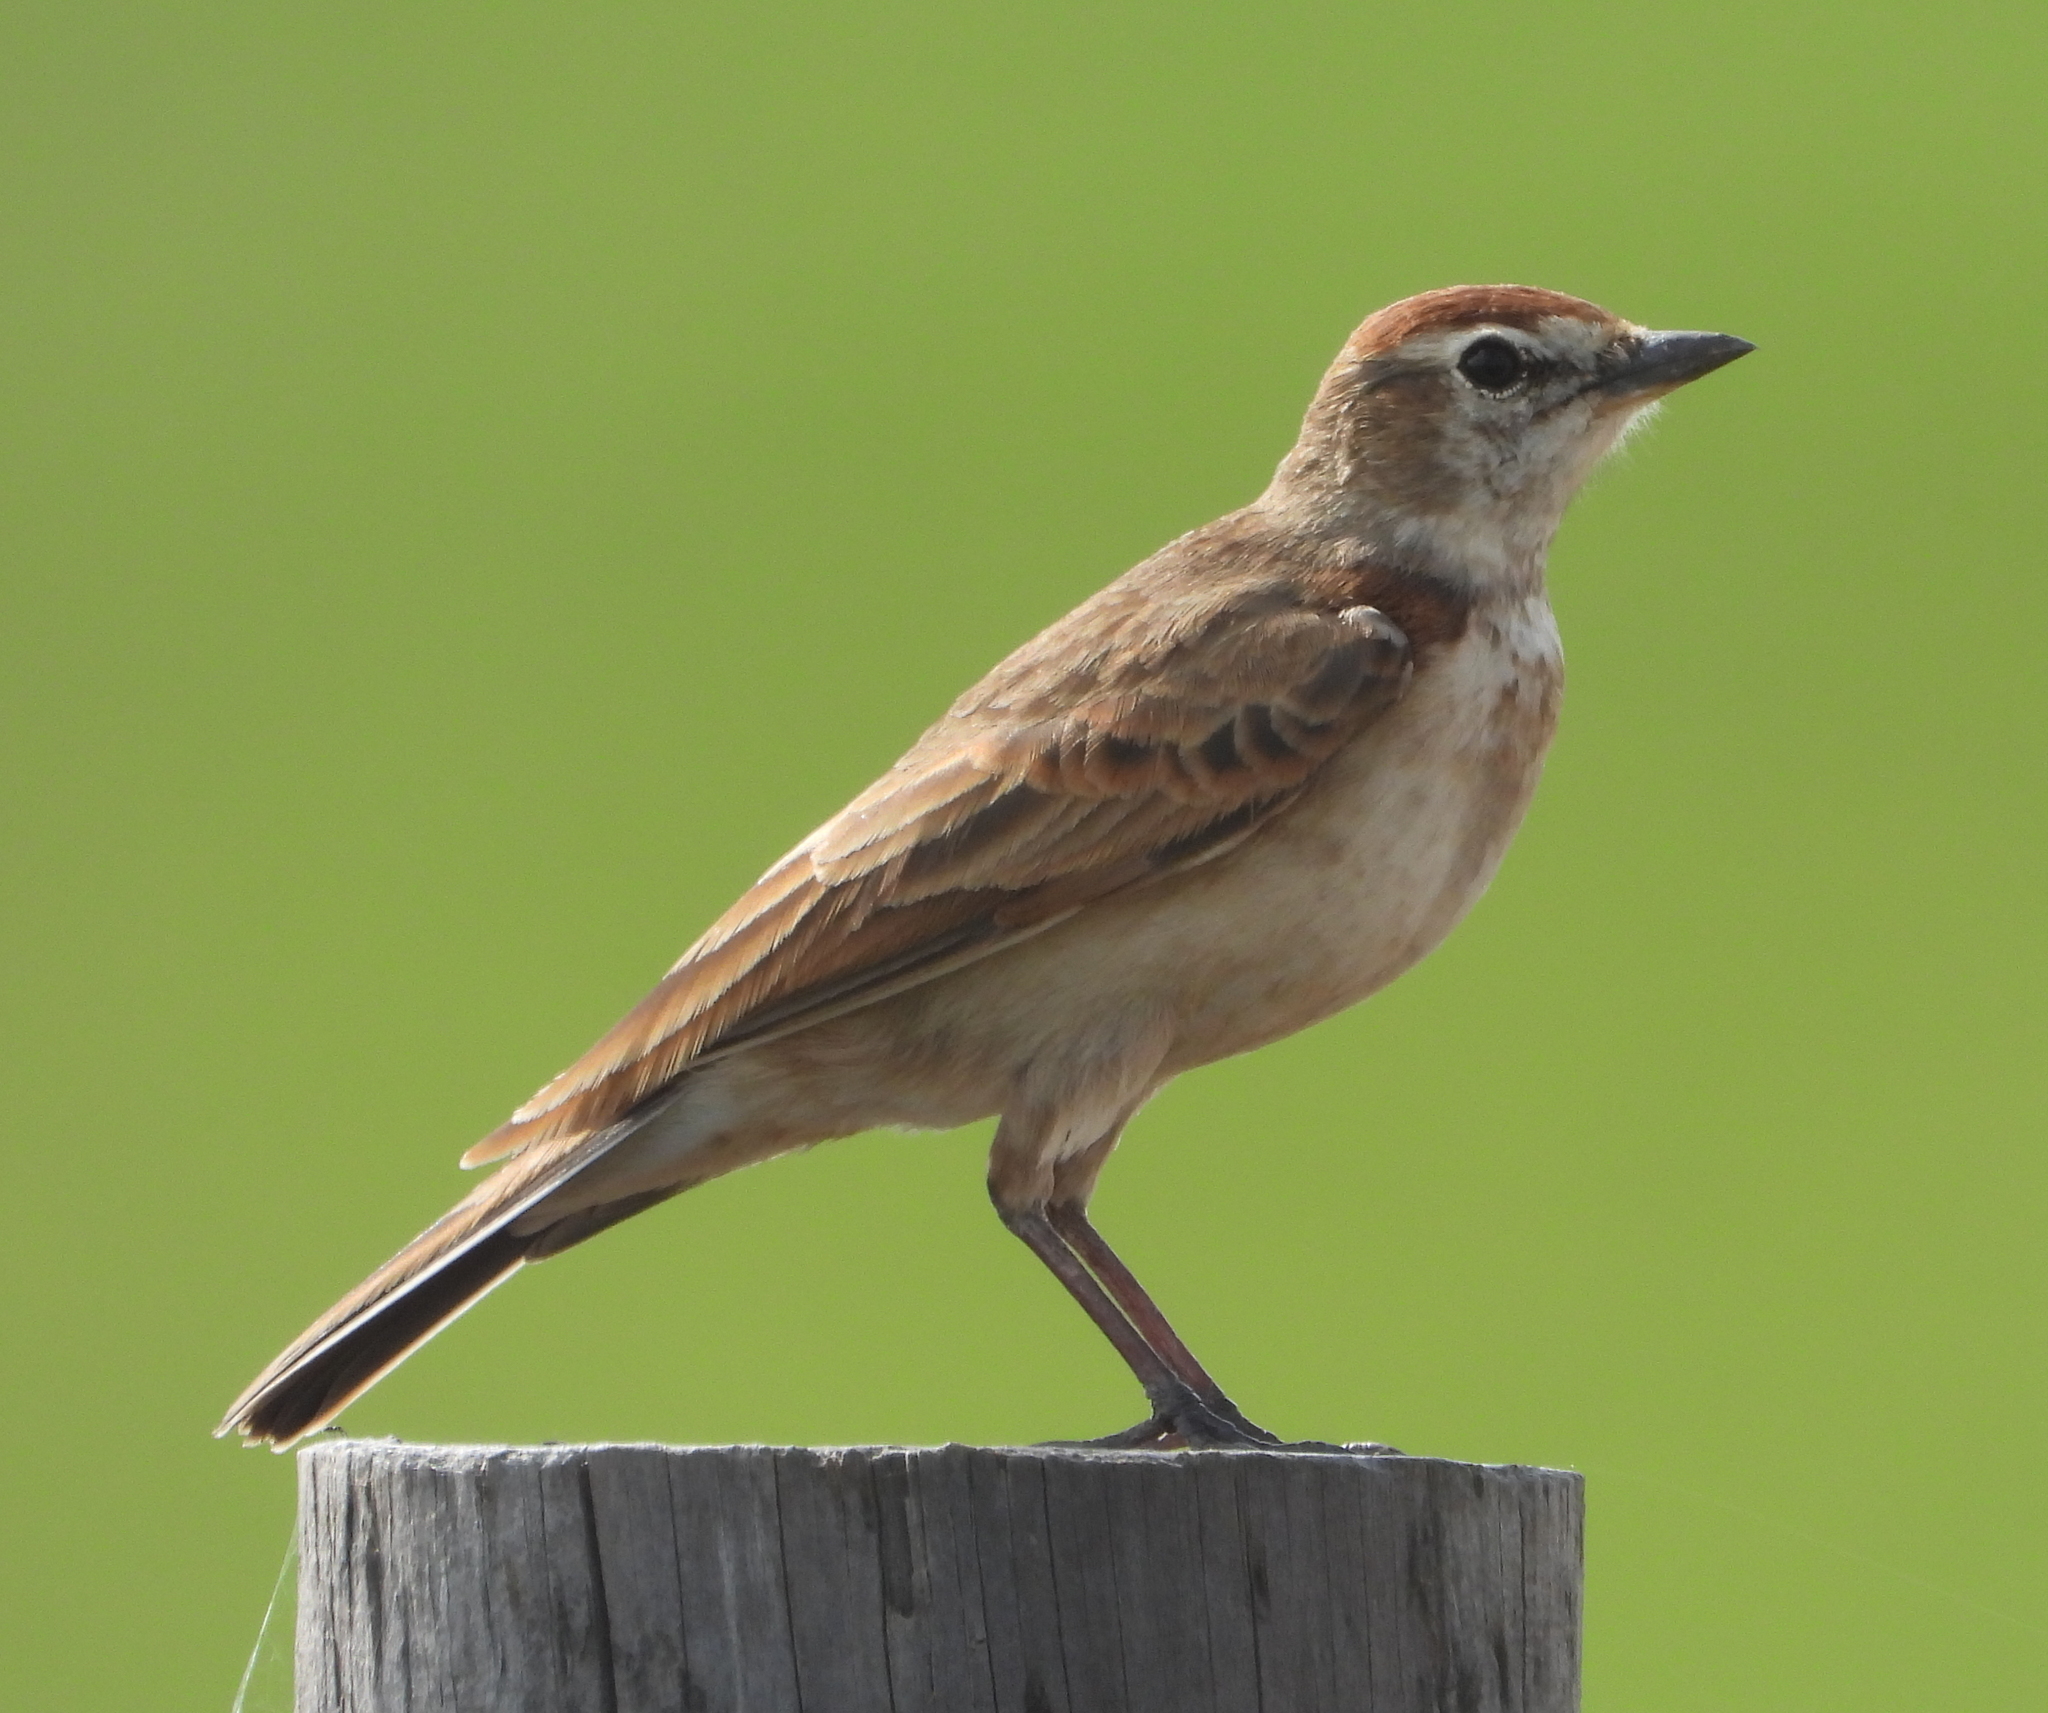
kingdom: Animalia
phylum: Chordata
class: Aves
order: Passeriformes
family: Alaudidae
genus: Calandrella
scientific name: Calandrella cinerea
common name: Red-capped lark
